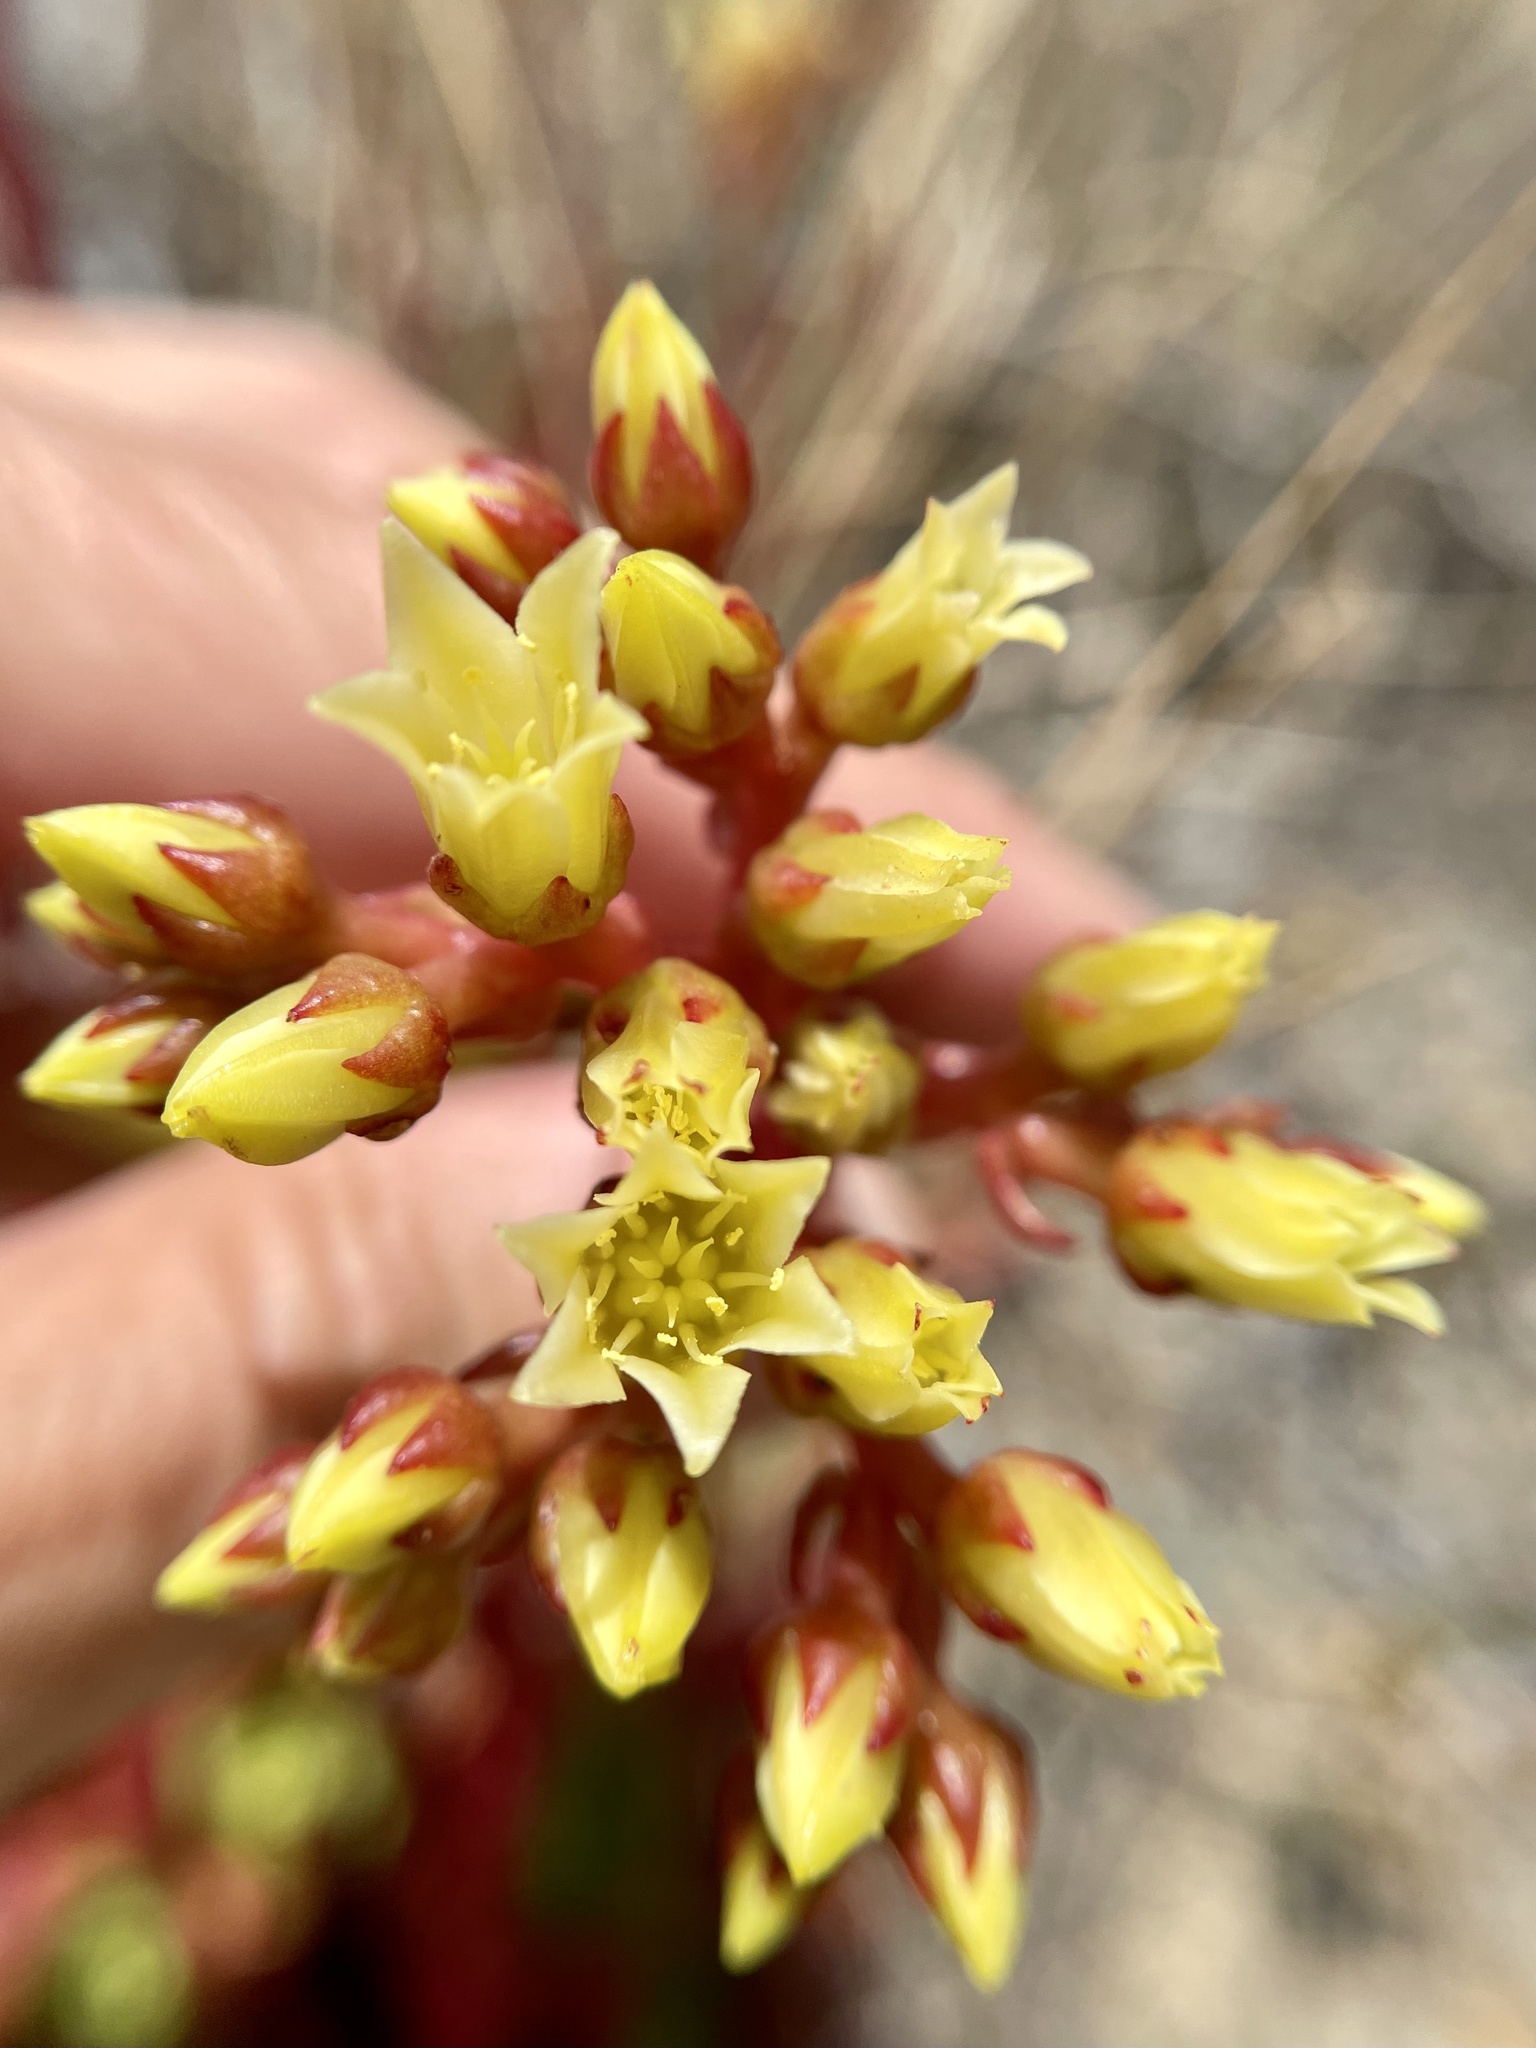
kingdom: Plantae
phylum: Tracheophyta
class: Magnoliopsida
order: Saxifragales
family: Crassulaceae
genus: Dudleya
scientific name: Dudleya farinosa
